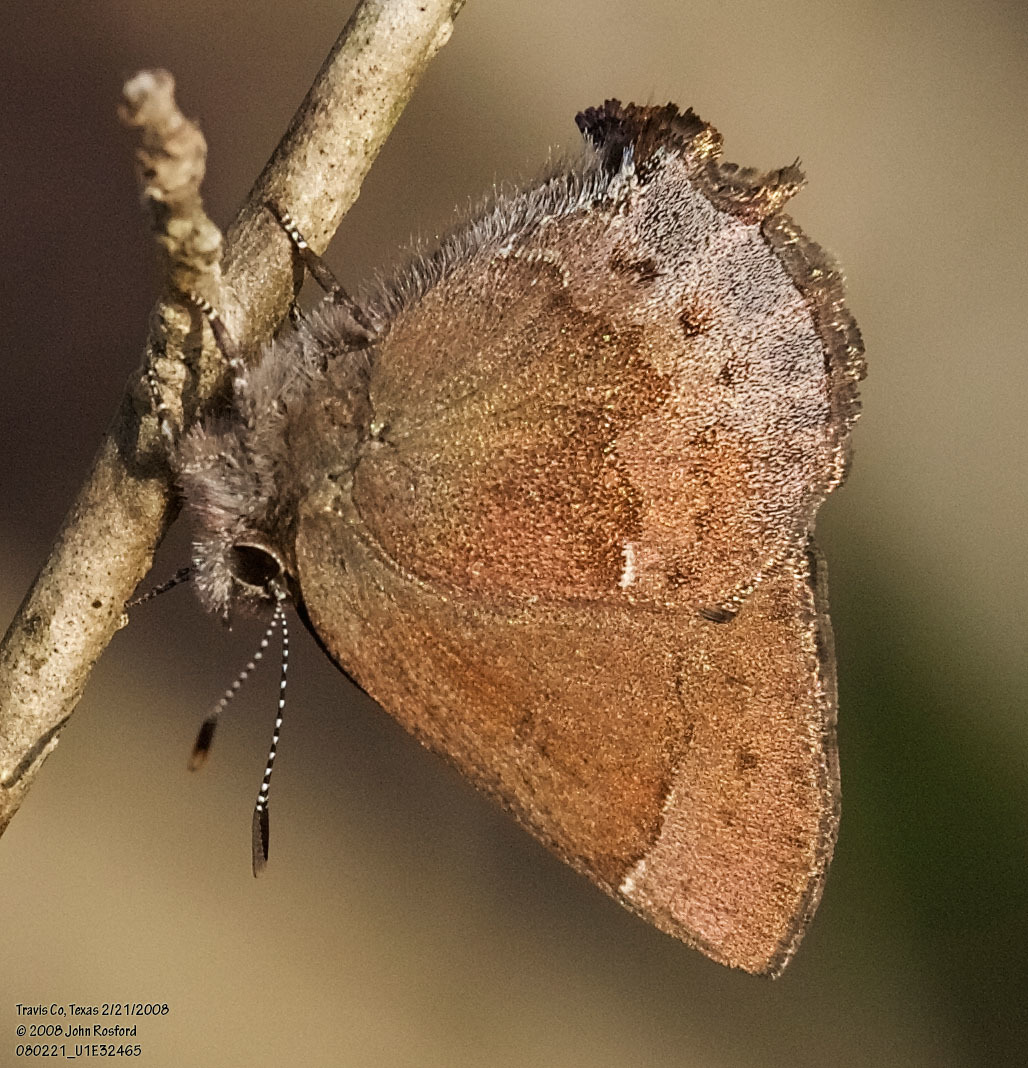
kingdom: Animalia
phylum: Arthropoda
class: Insecta
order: Lepidoptera
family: Lycaenidae
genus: Incisalia
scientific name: Incisalia henrici
